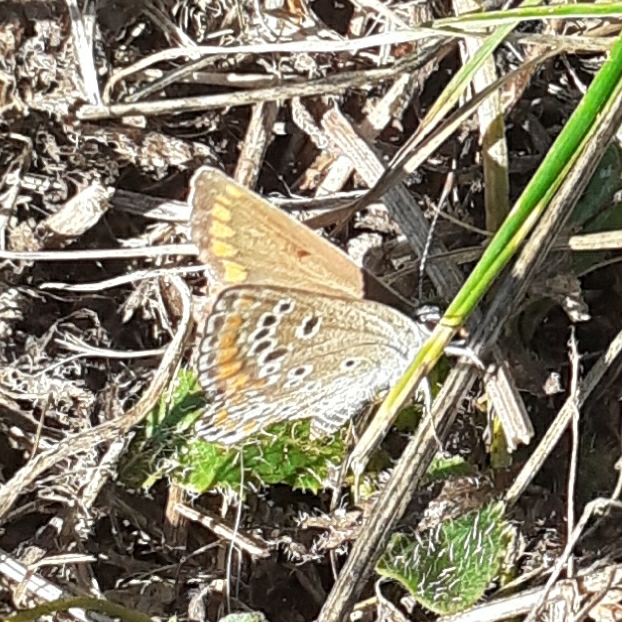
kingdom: Animalia
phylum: Arthropoda
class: Insecta
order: Lepidoptera
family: Lycaenidae
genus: Aricia
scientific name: Aricia agestis
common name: Brown argus
